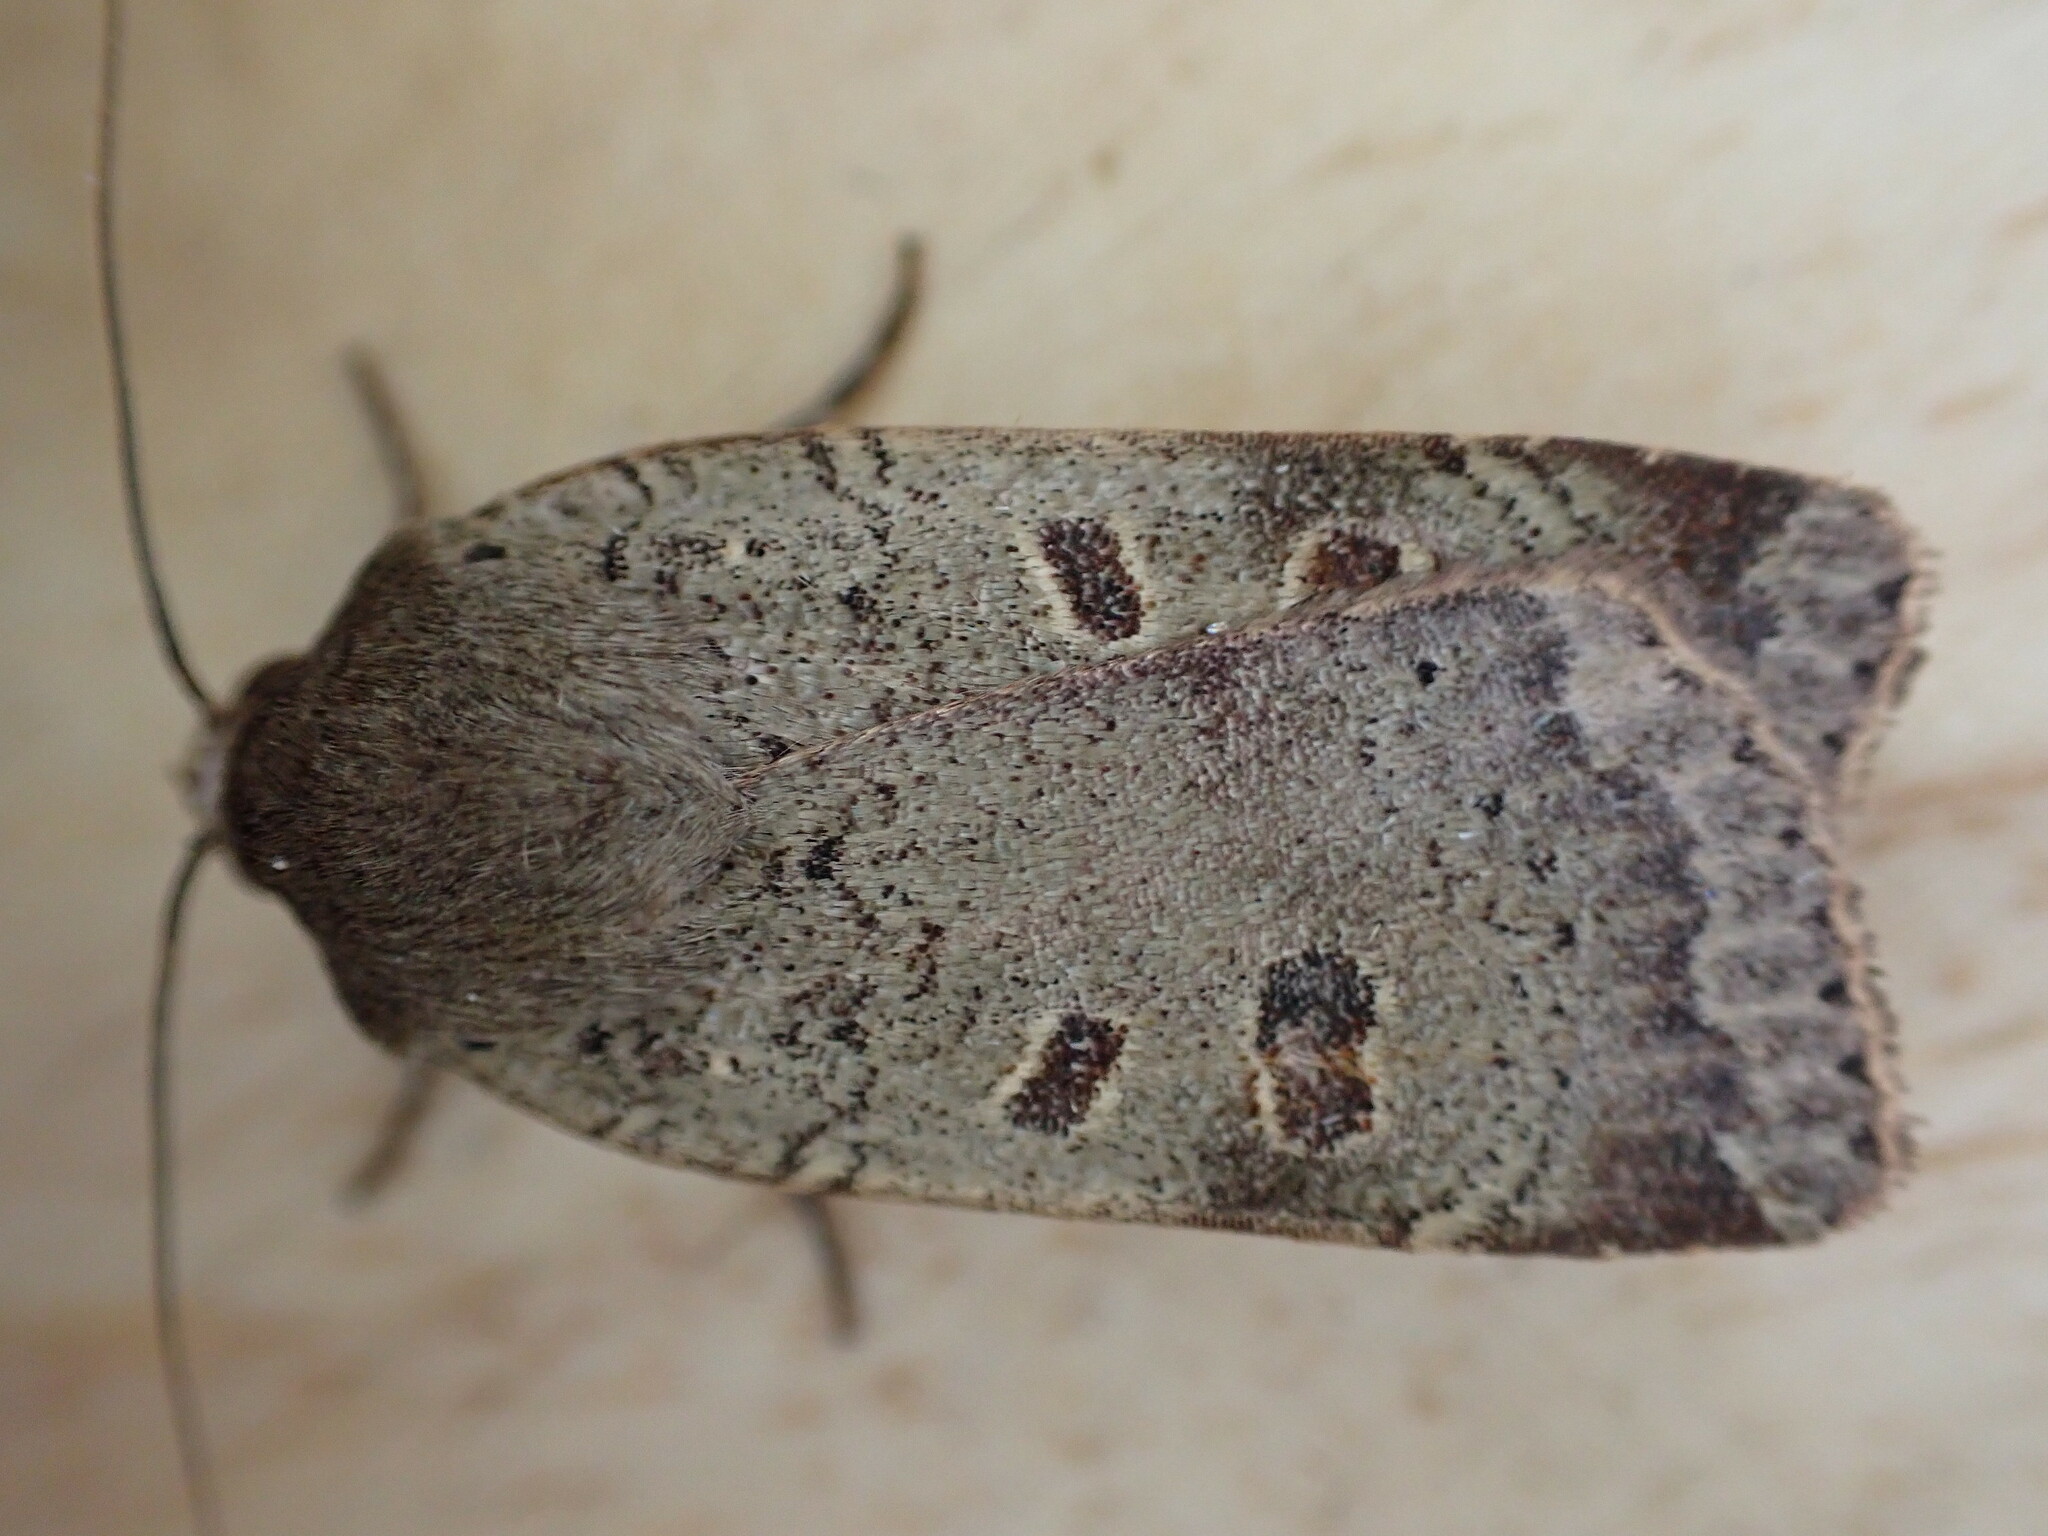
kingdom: Animalia
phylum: Arthropoda
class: Insecta
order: Lepidoptera
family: Noctuidae
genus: Noctua
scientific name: Noctua comes
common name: Lesser yellow underwing
